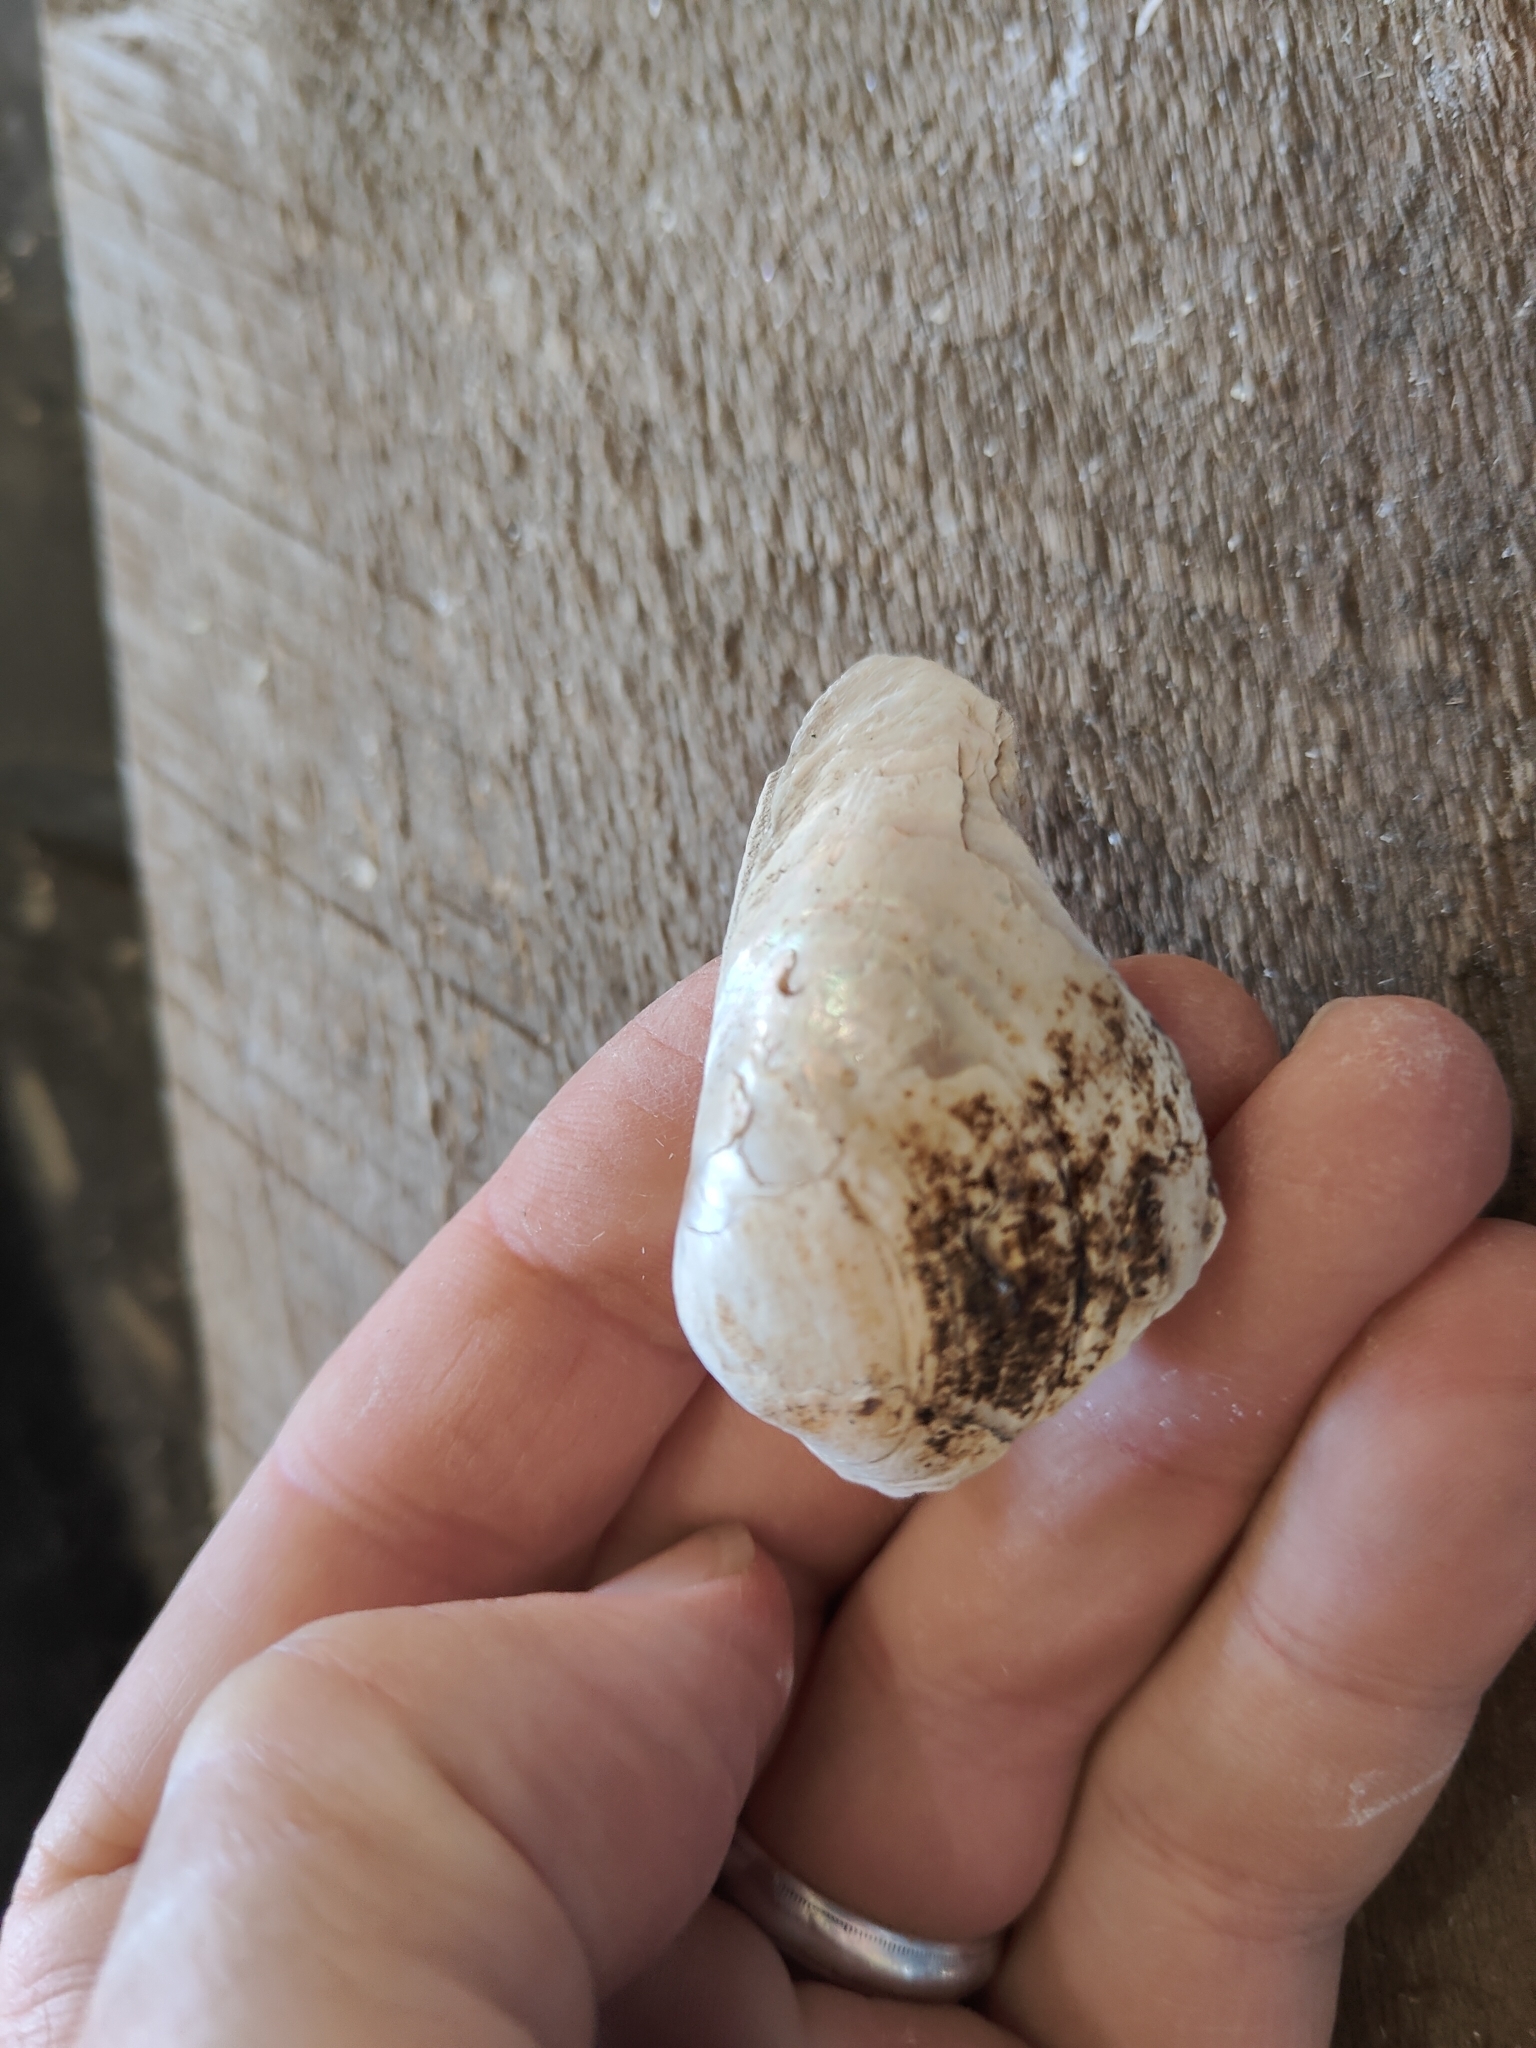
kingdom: Animalia
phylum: Mollusca
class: Bivalvia
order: Unionida
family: Unionidae
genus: Lampsilis
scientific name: Lampsilis cardium
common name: Plain pocketbook
